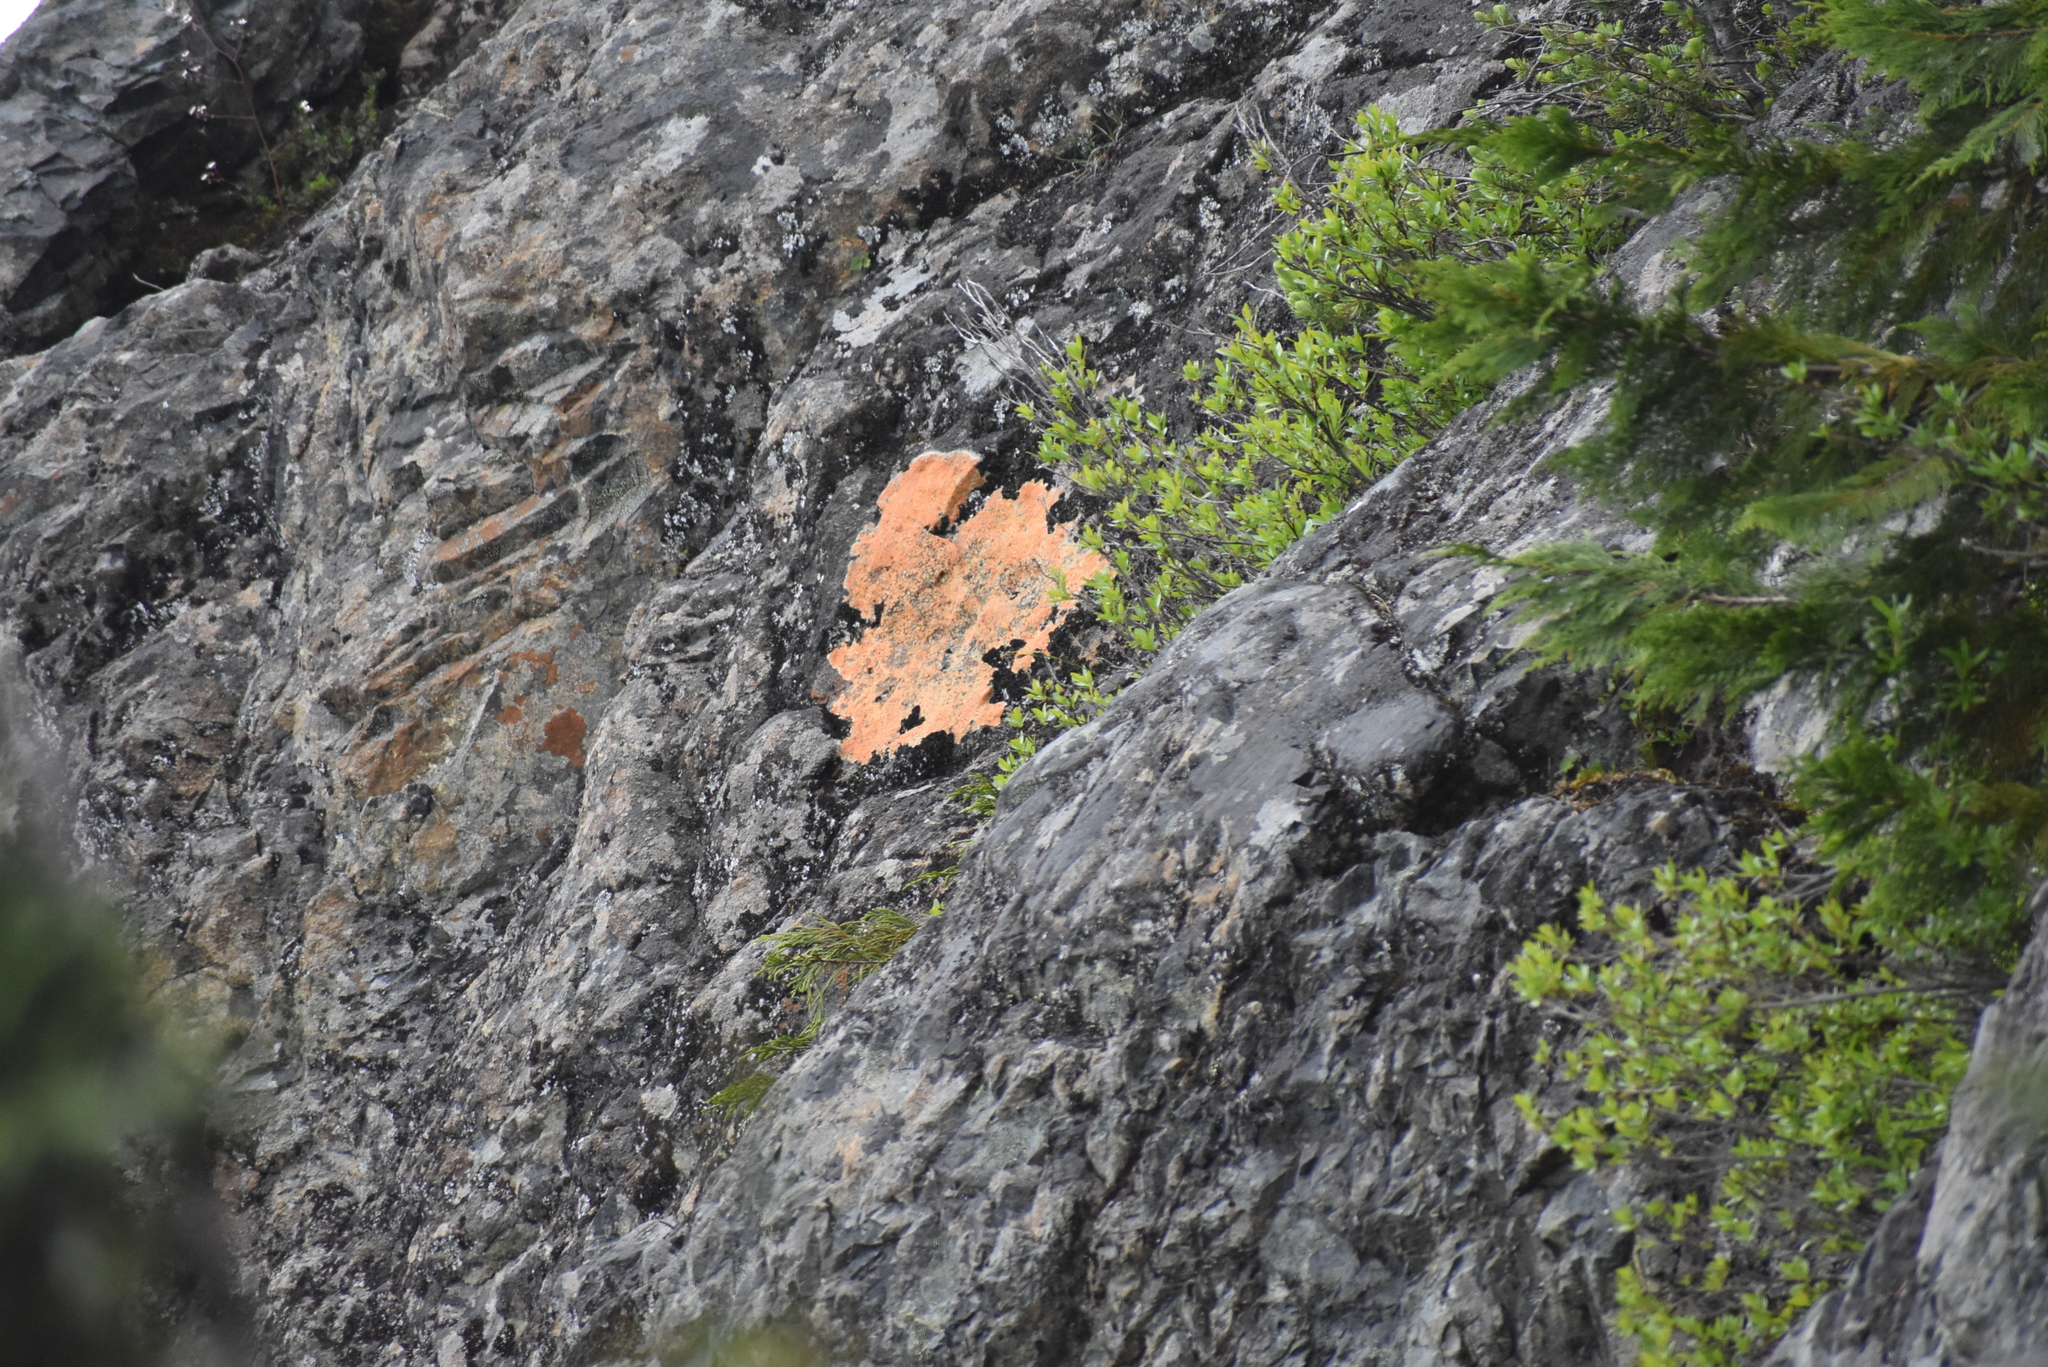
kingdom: Fungi
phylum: Ascomycota
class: Lecanoromycetes
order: Lecideales
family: Lecideaceae
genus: Porpidia
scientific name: Porpidia flavicunda
